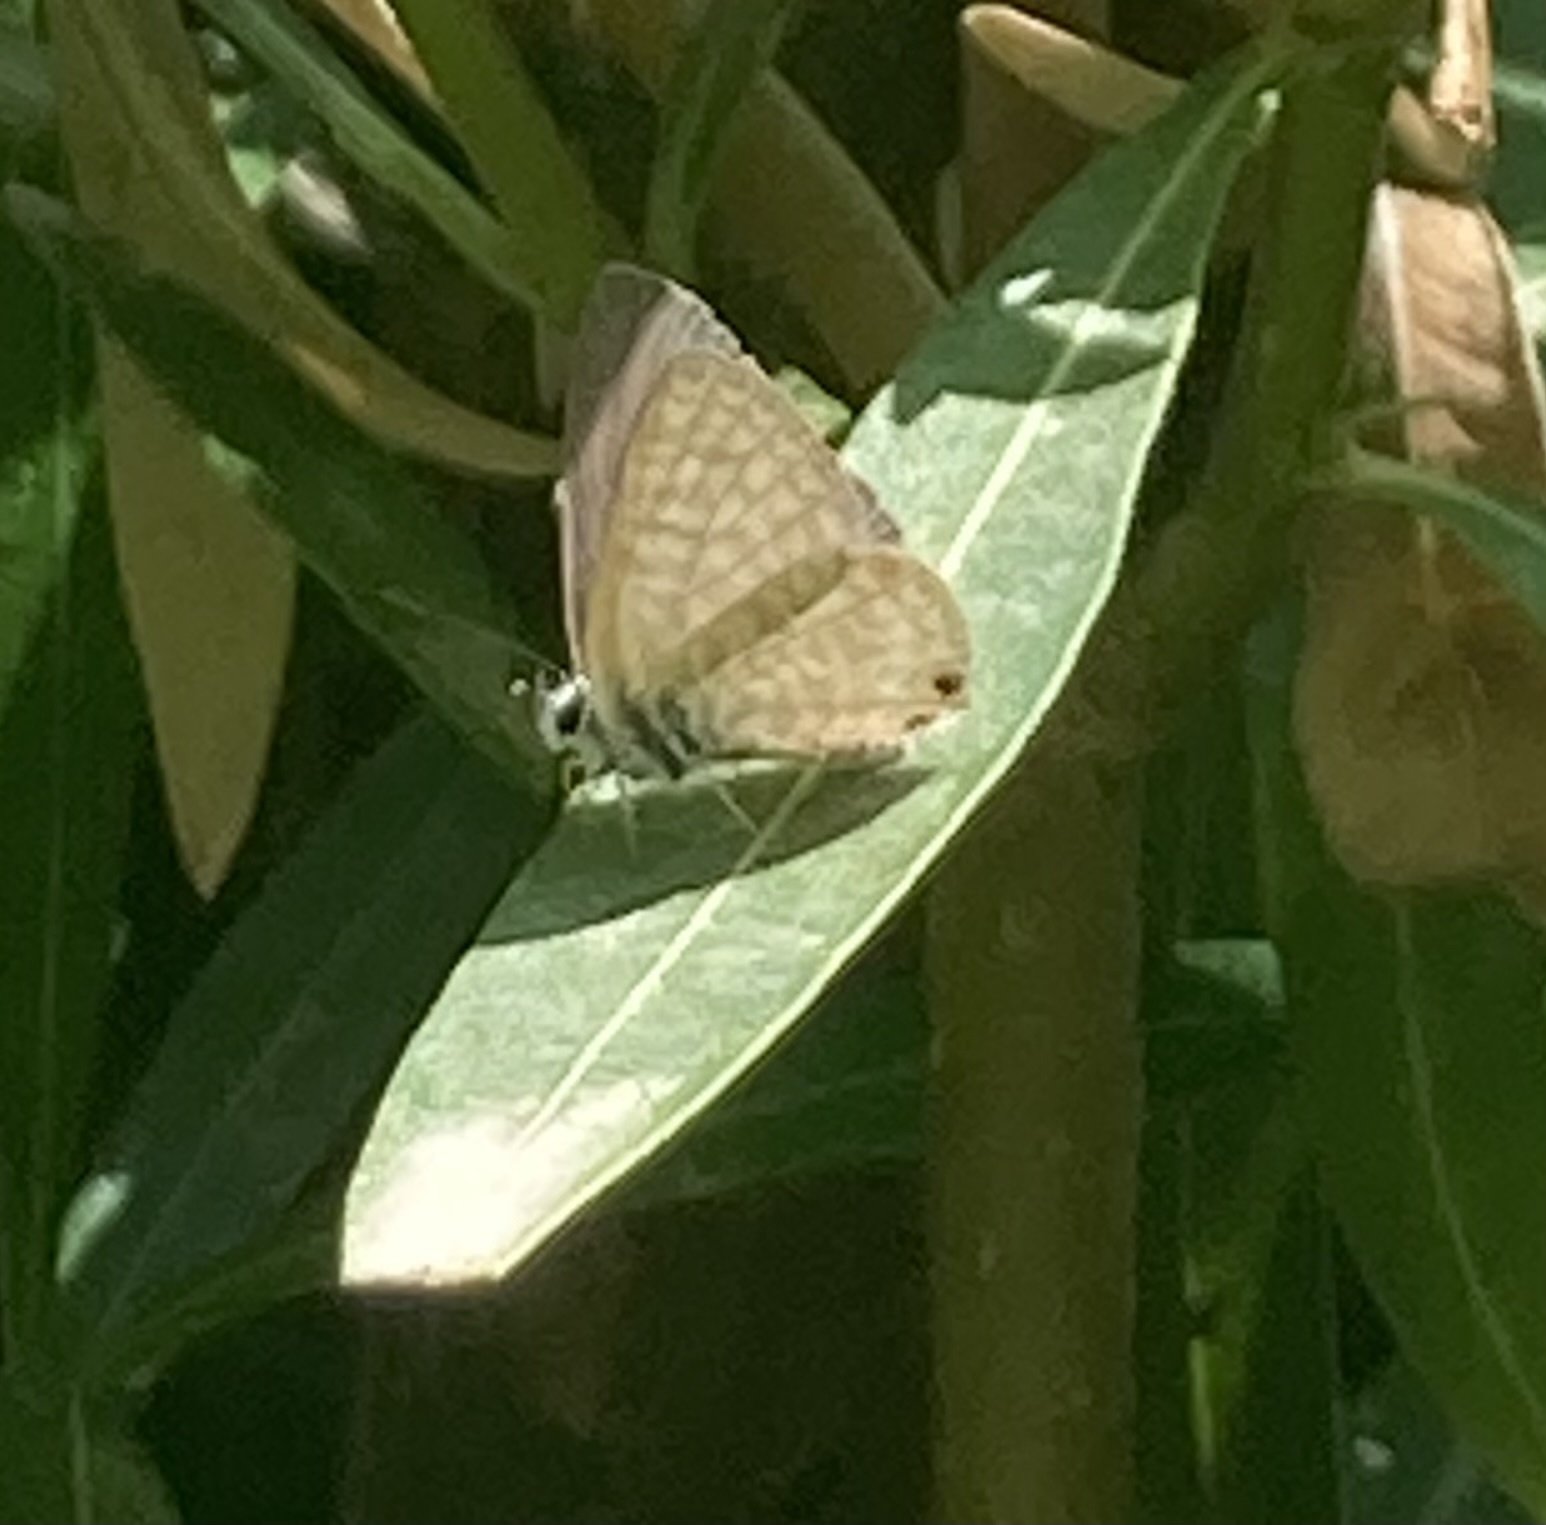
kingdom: Animalia
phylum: Arthropoda
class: Insecta
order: Lepidoptera
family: Lycaenidae
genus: Leptotes
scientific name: Leptotes pirithous
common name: Lang's short-tailed blue
